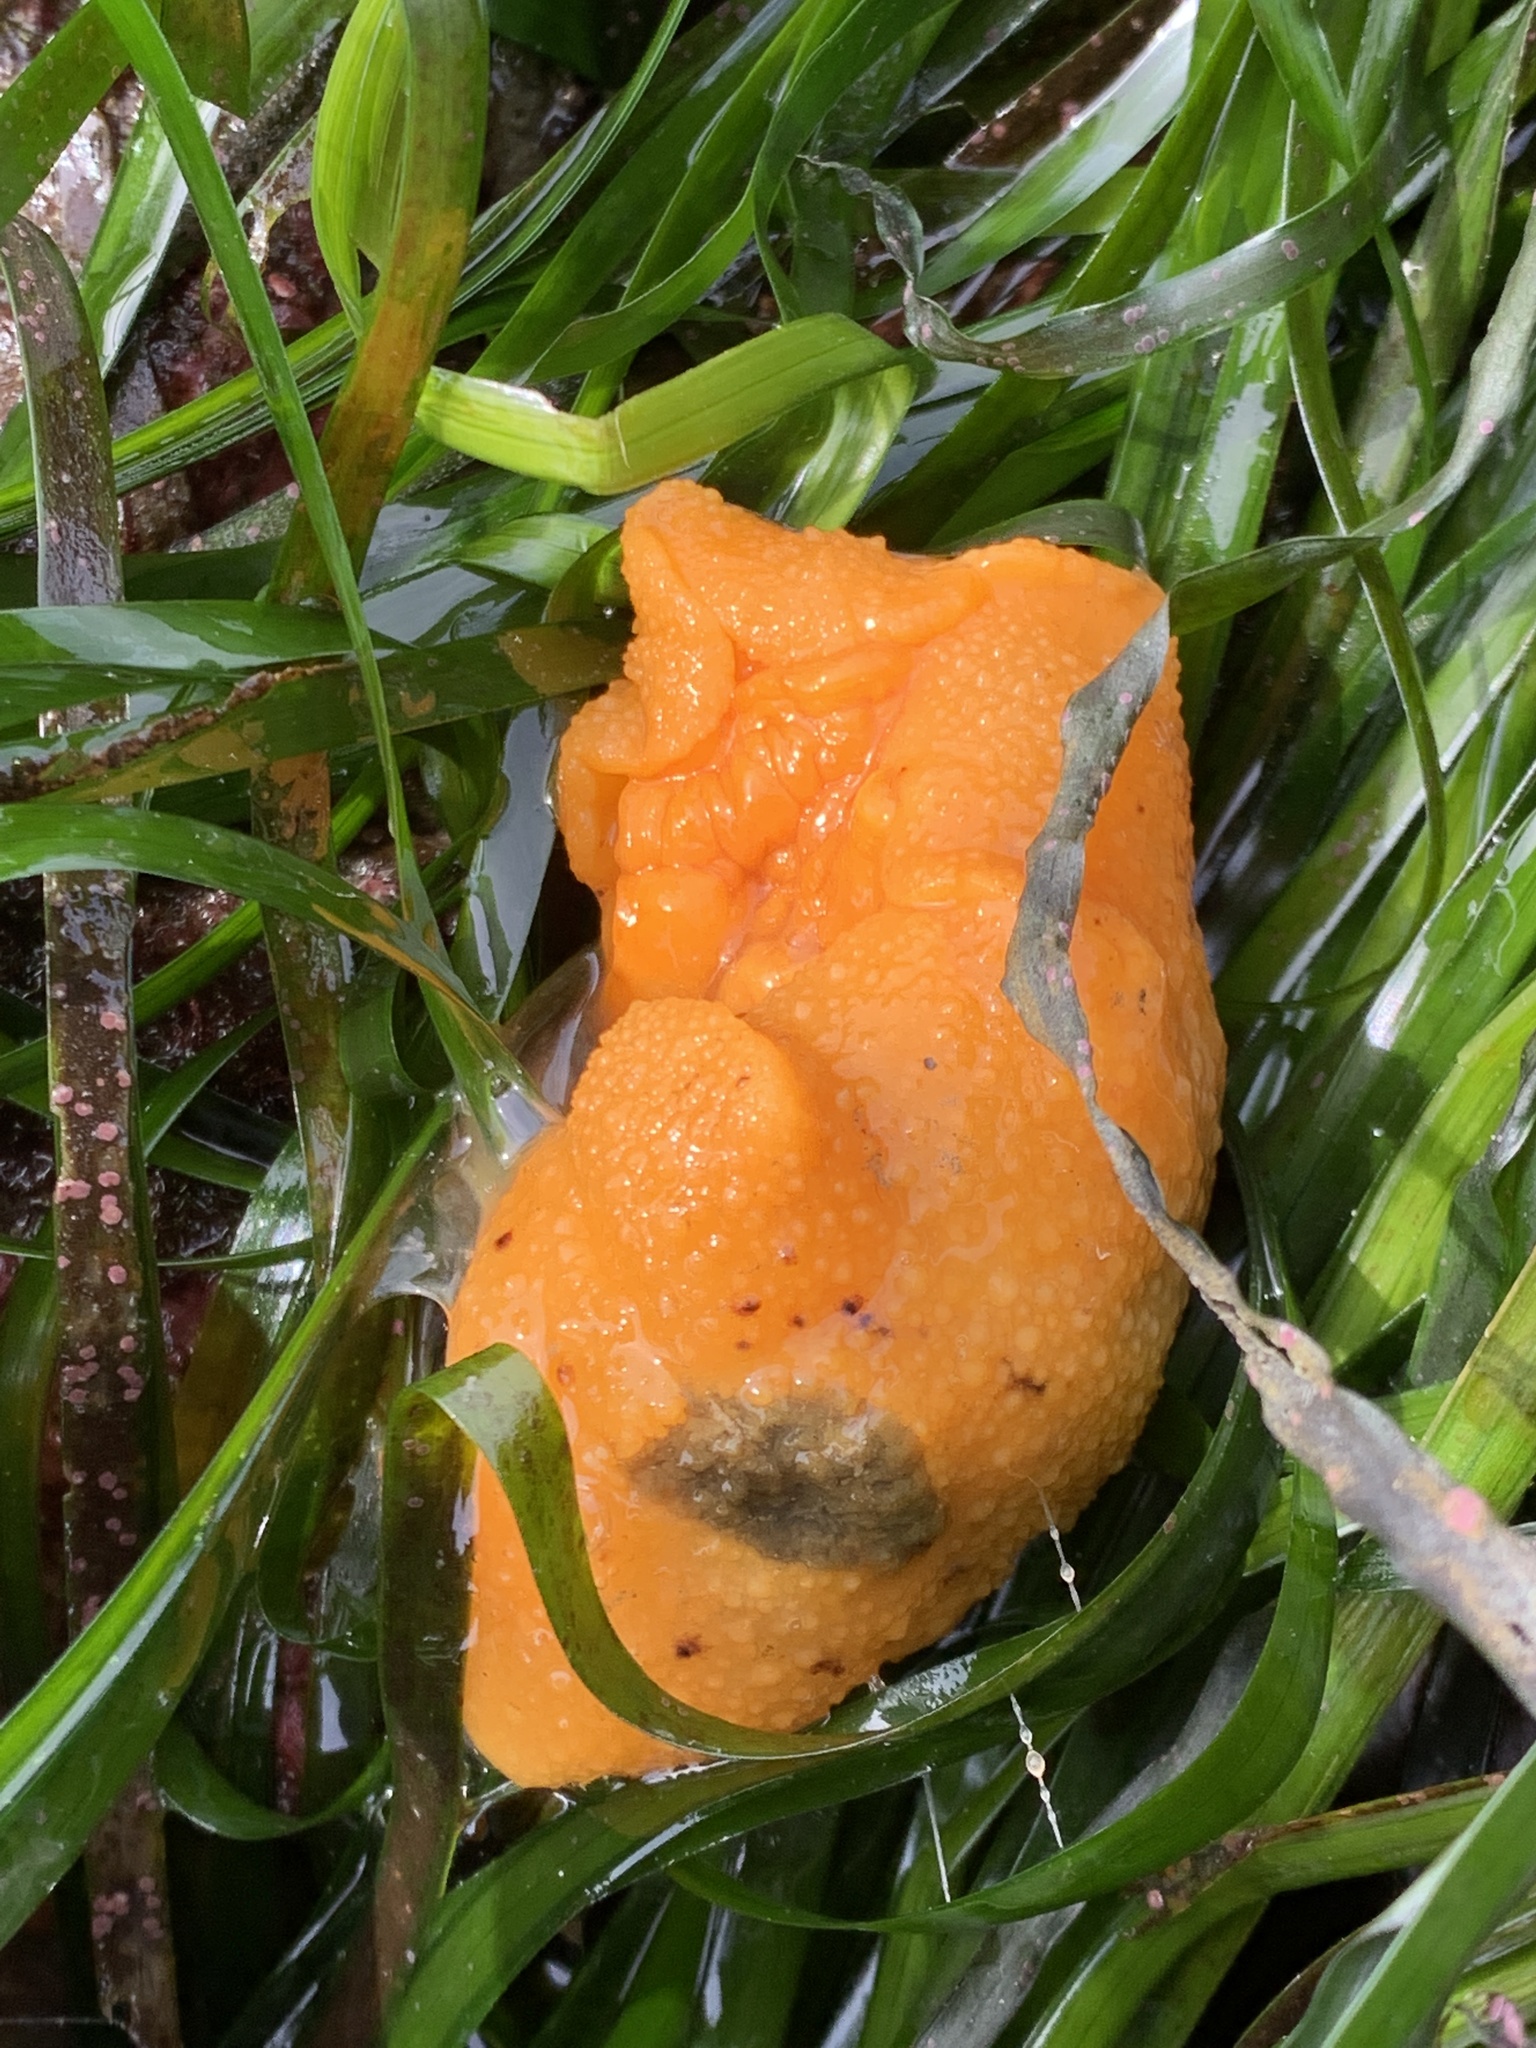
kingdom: Animalia
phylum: Mollusca
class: Gastropoda
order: Nudibranchia
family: Dorididae
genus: Doris
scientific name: Doris montereyensis
